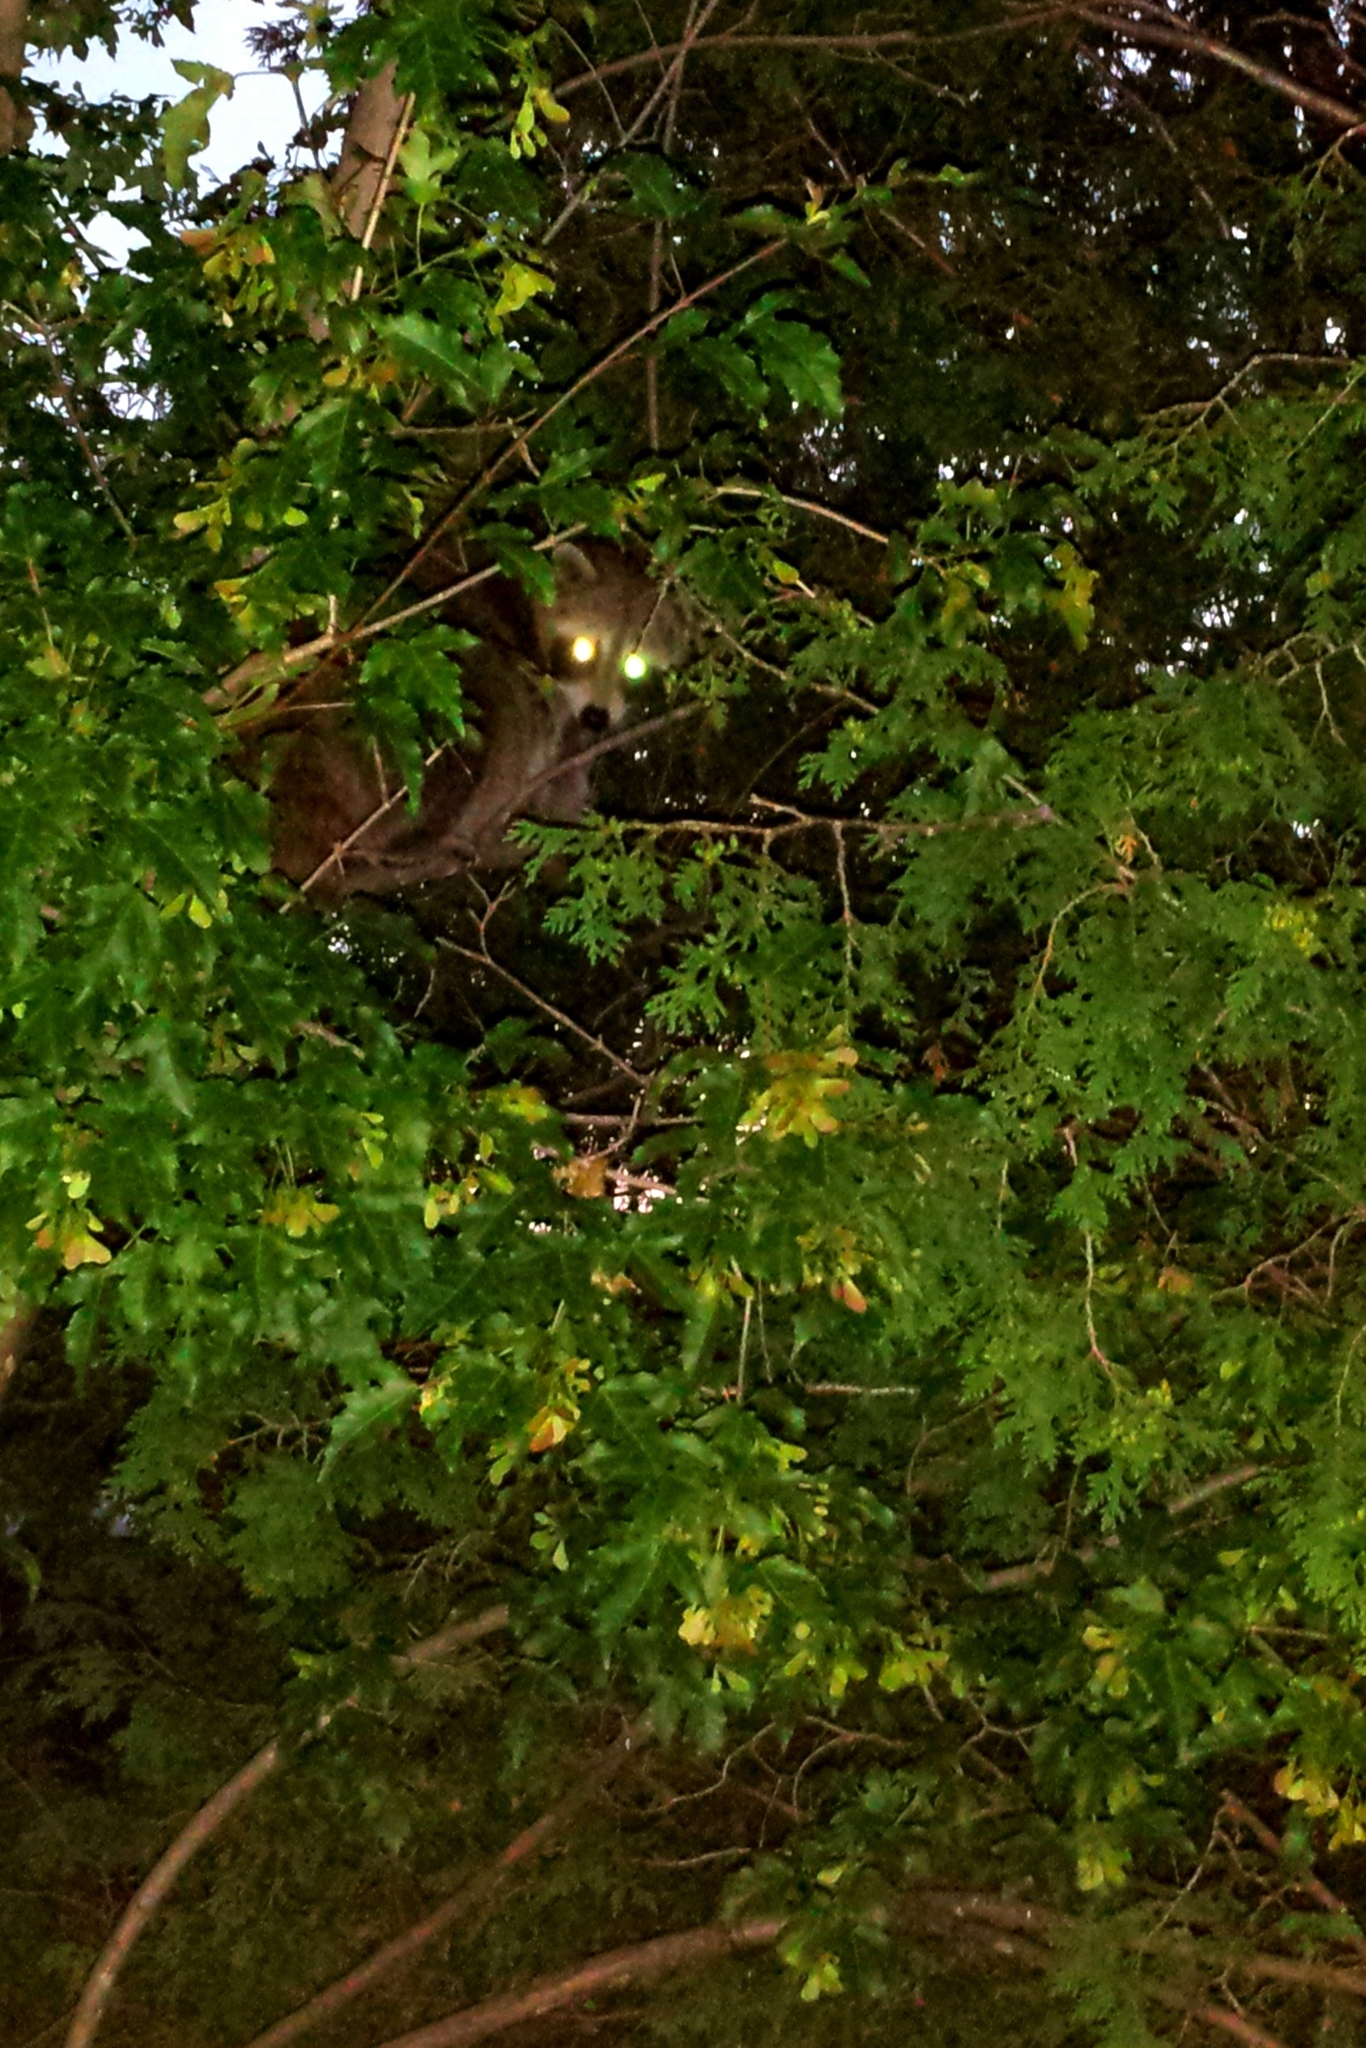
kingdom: Animalia
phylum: Chordata
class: Mammalia
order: Carnivora
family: Procyonidae
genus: Procyon
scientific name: Procyon lotor
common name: Raccoon
